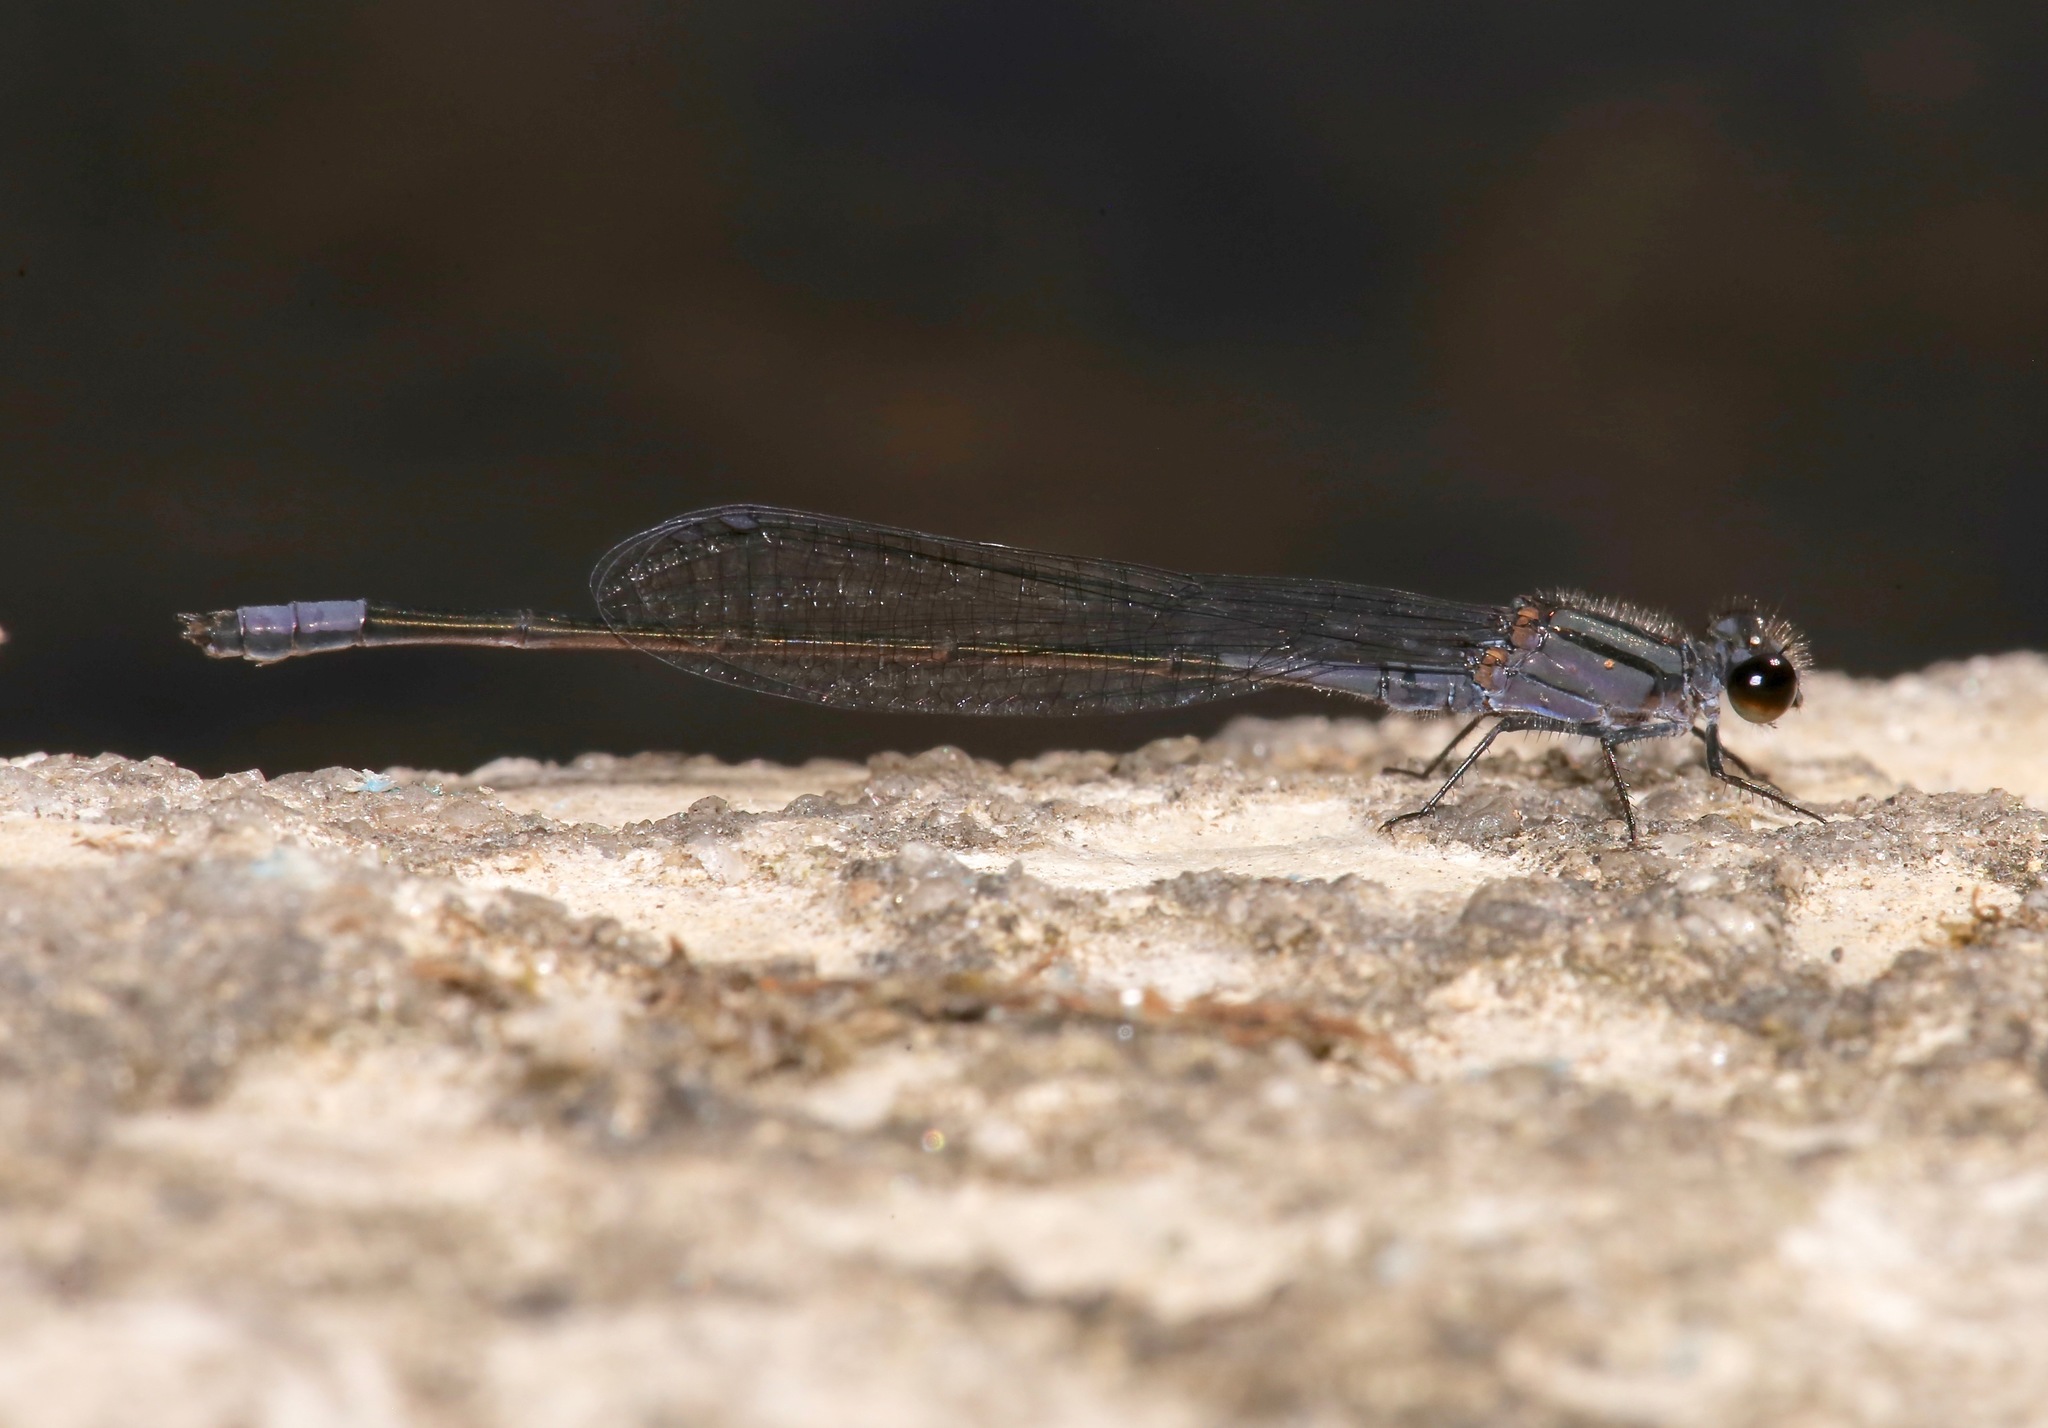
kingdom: Animalia
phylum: Arthropoda
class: Insecta
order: Odonata
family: Coenagrionidae
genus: Enallagma
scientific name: Enallagma cardenium
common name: Purple bluet
